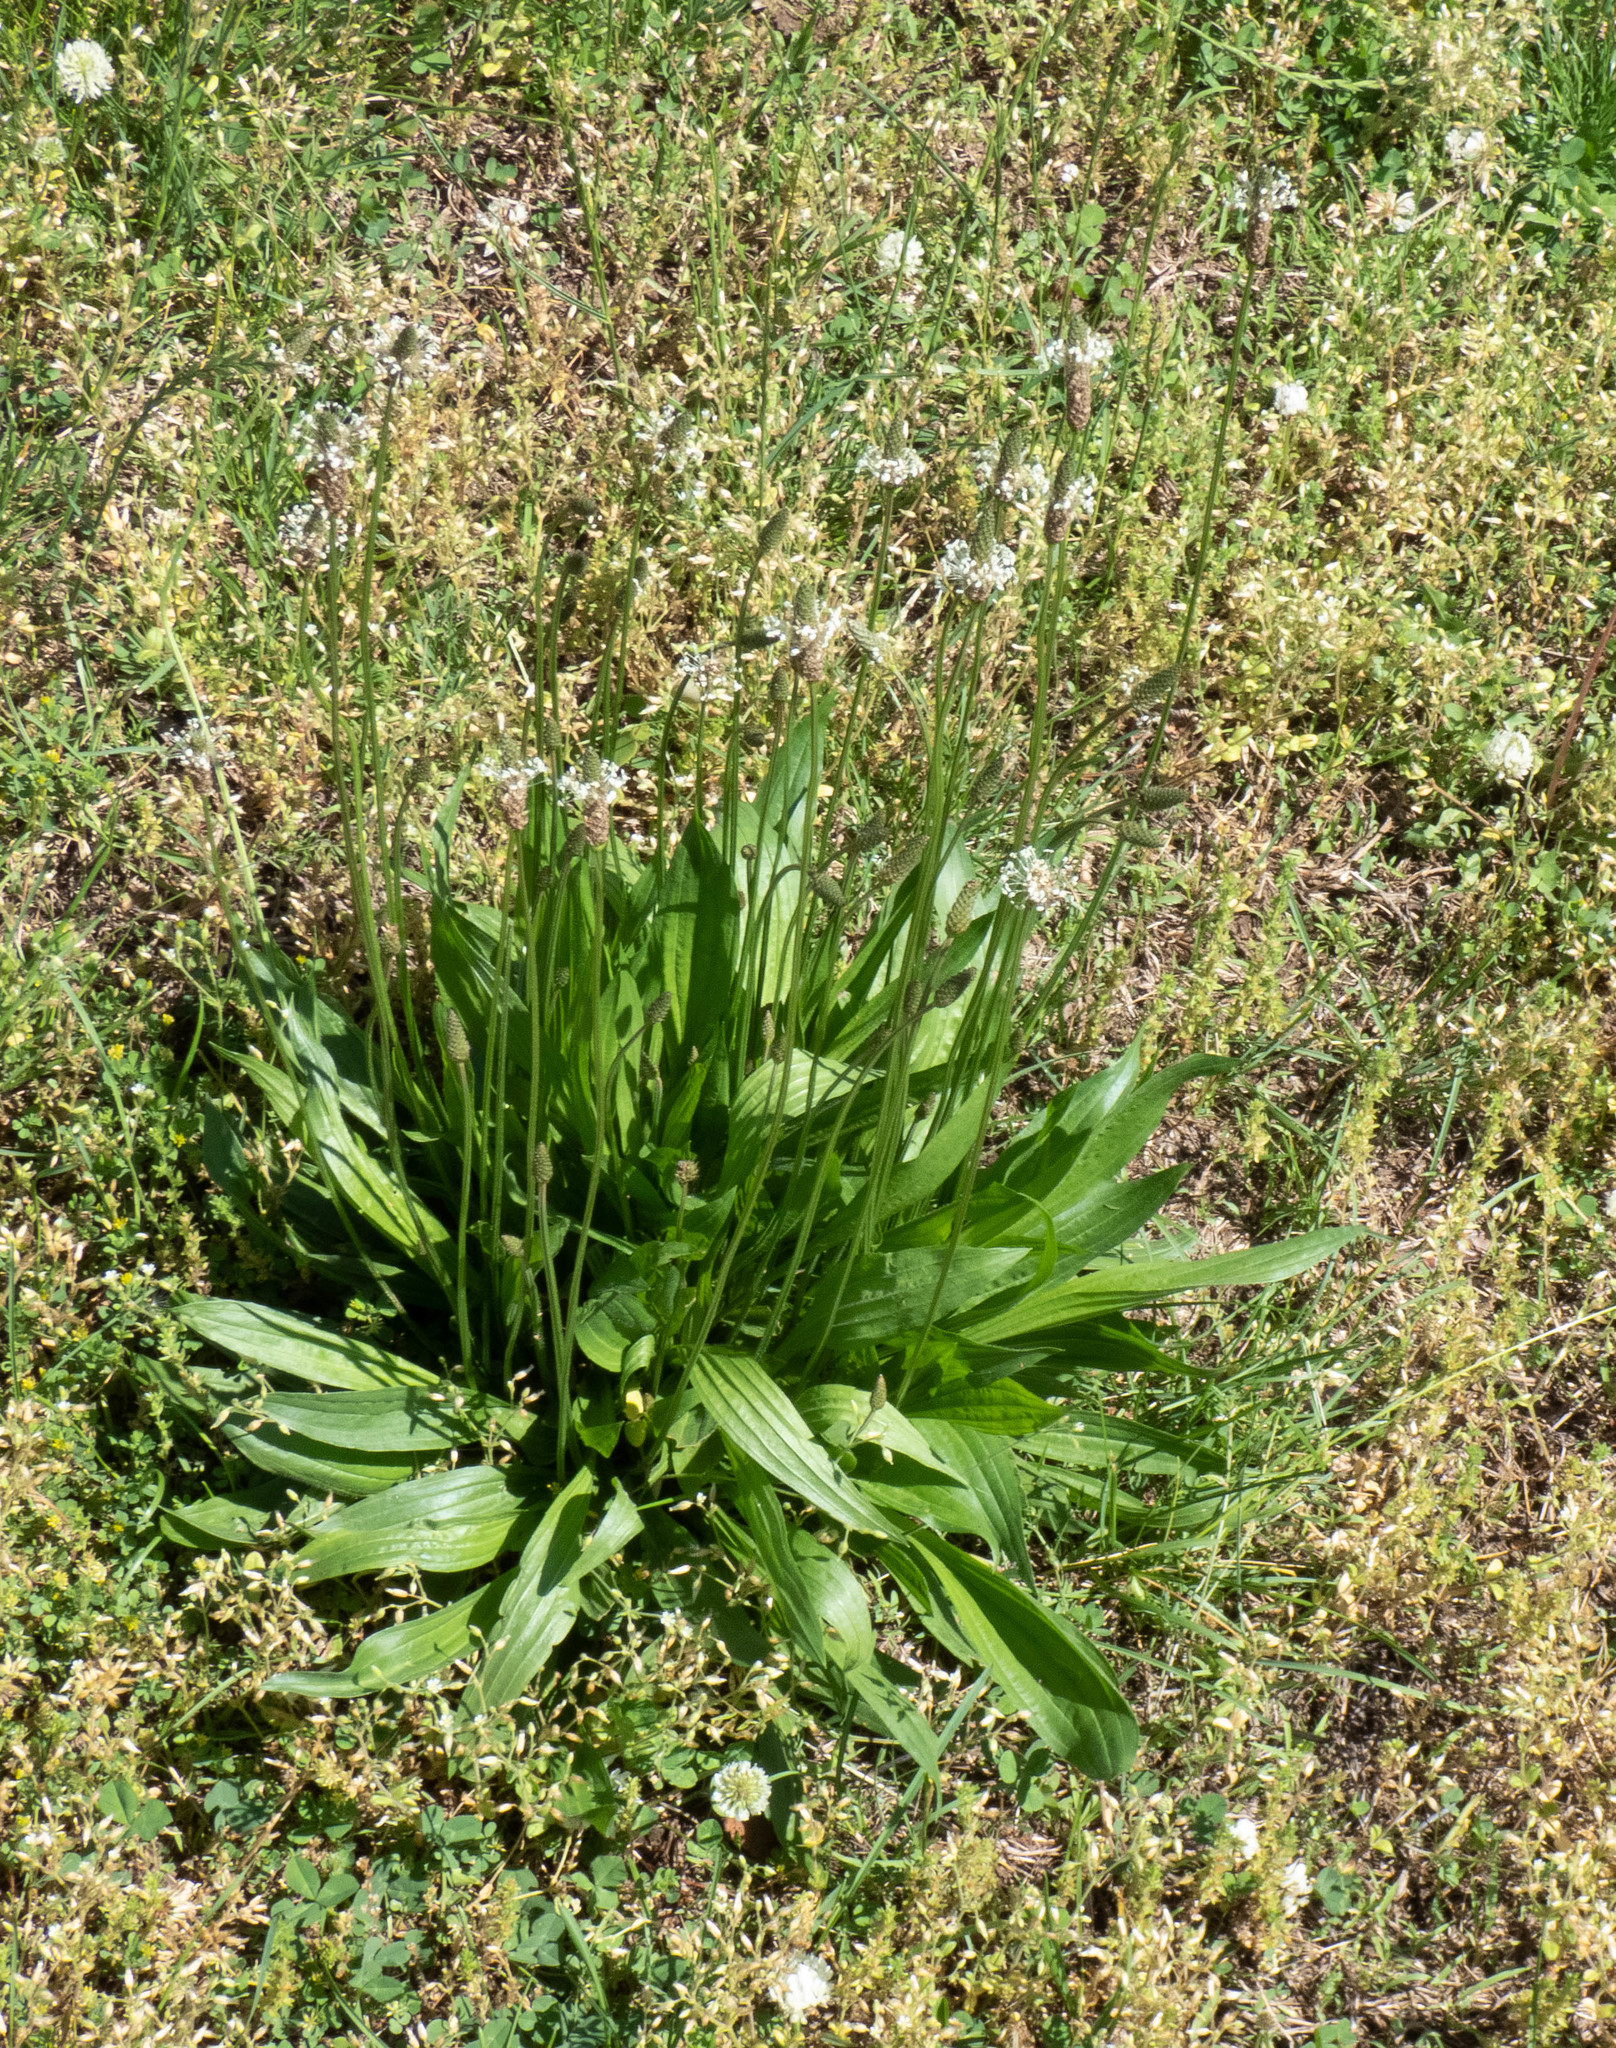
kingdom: Plantae
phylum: Tracheophyta
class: Magnoliopsida
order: Lamiales
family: Plantaginaceae
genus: Plantago
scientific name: Plantago lanceolata
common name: Ribwort plantain
